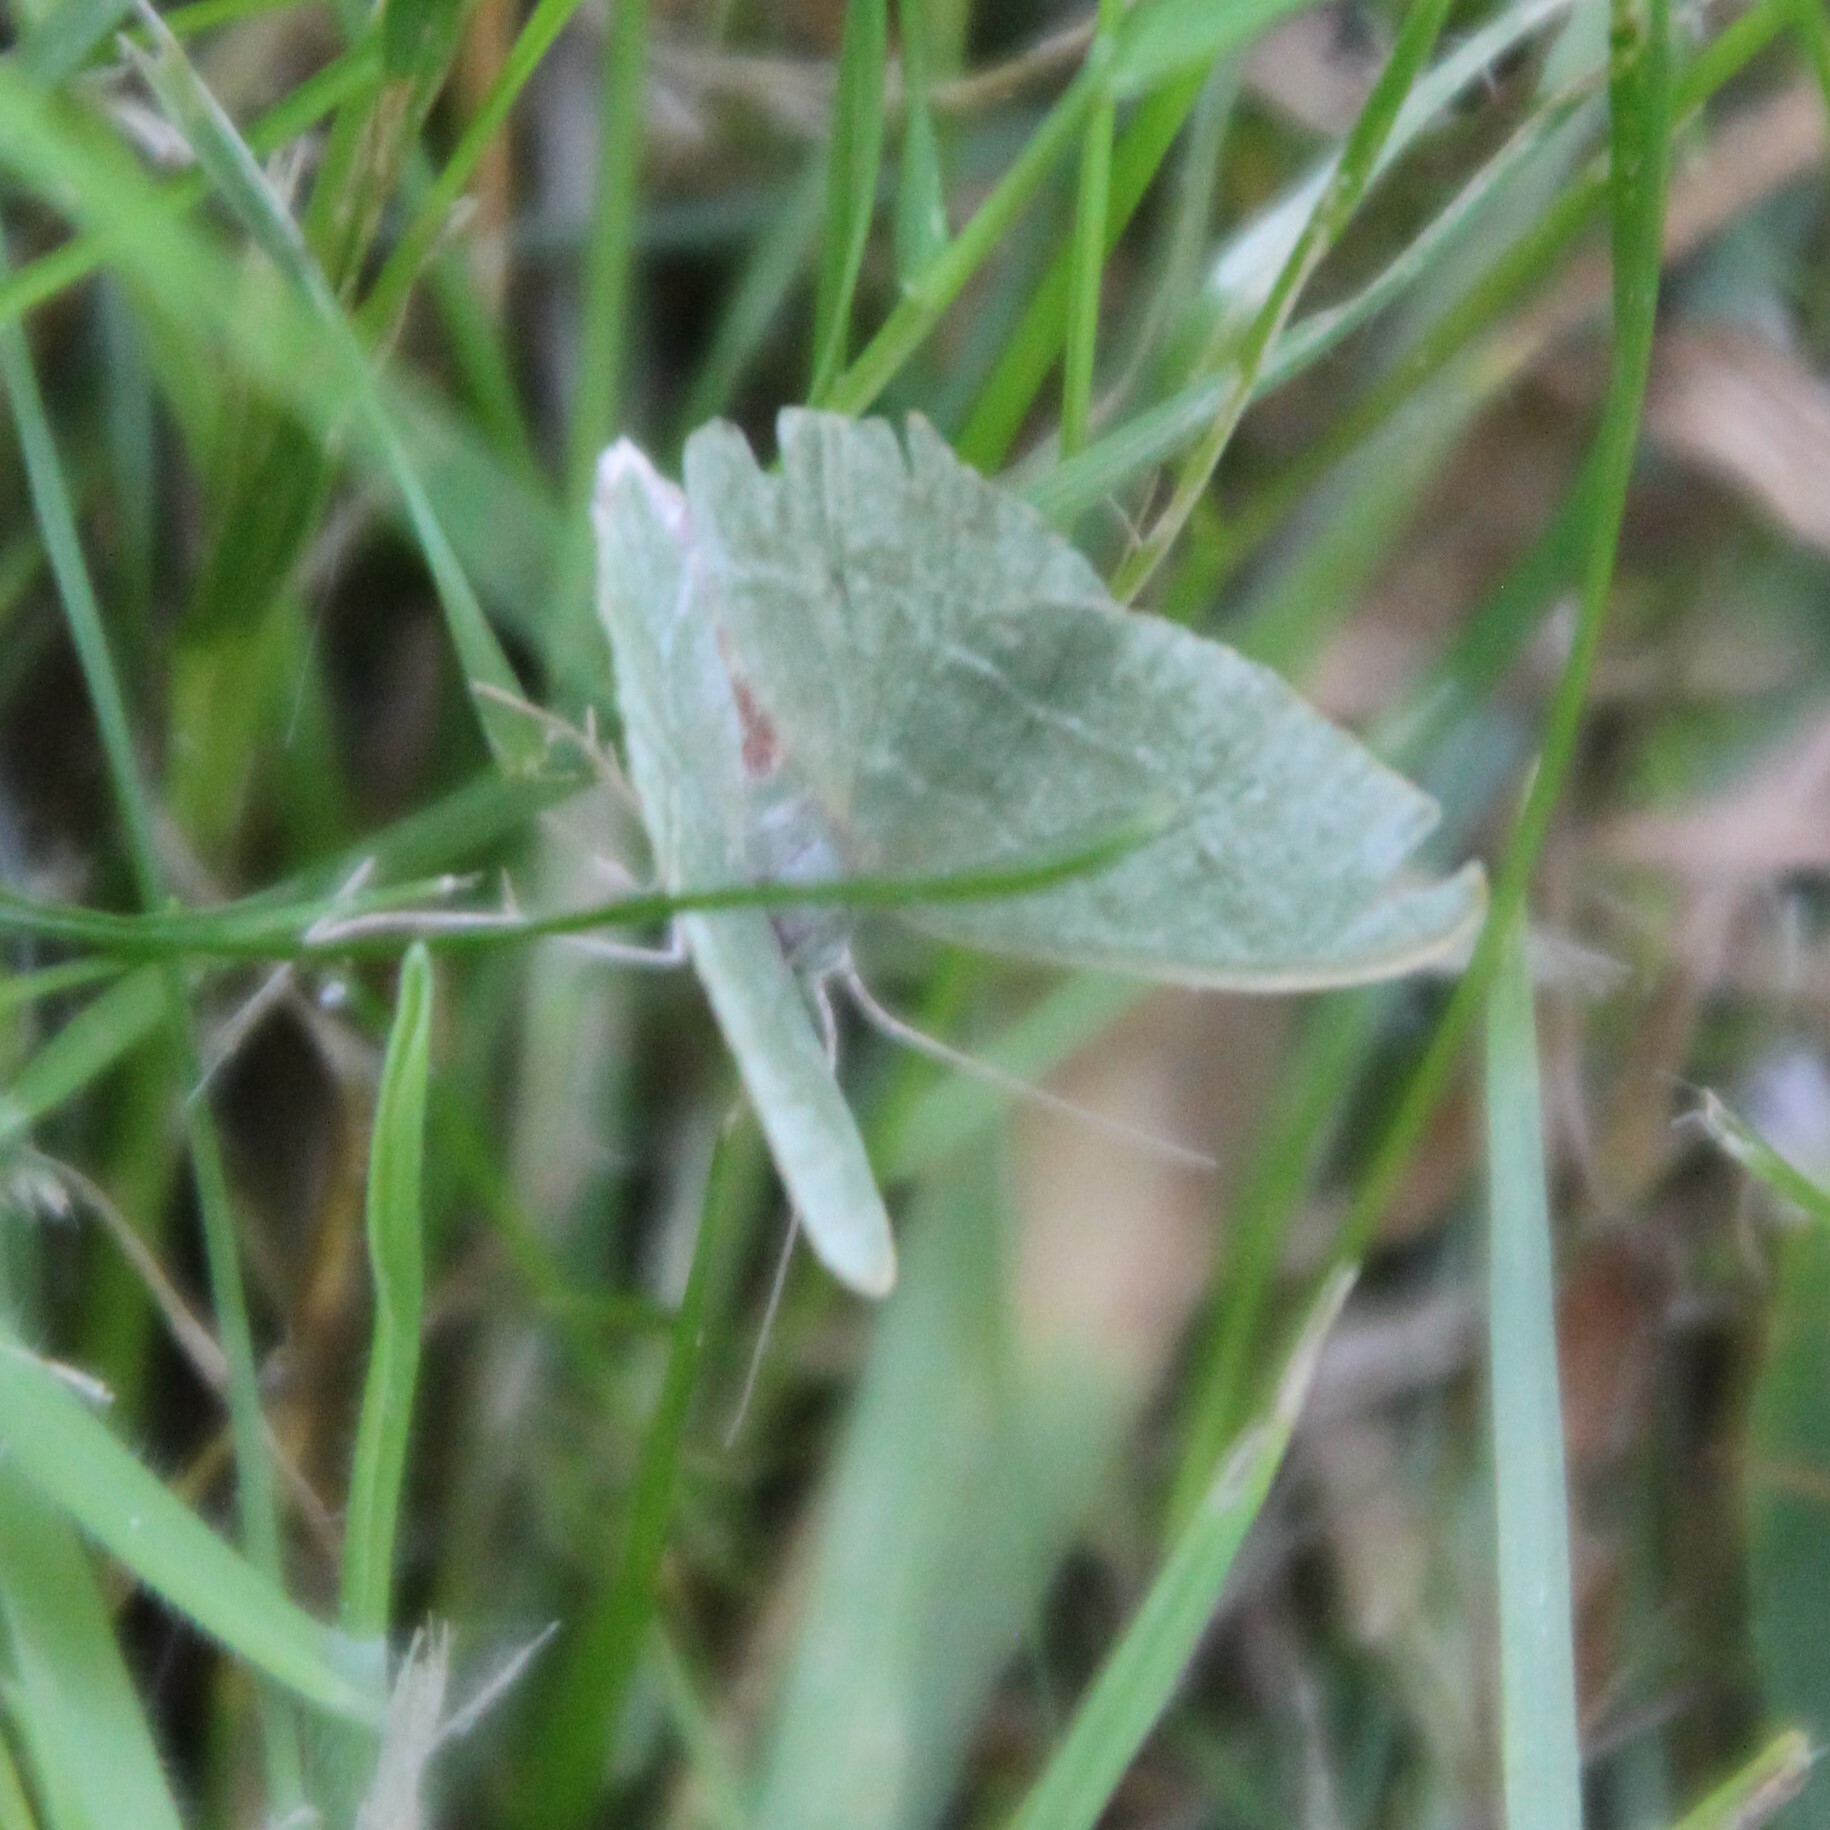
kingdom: Animalia
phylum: Arthropoda
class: Insecta
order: Lepidoptera
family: Geometridae
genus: Hemithea
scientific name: Hemithea aestivaria
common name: Common emerald
